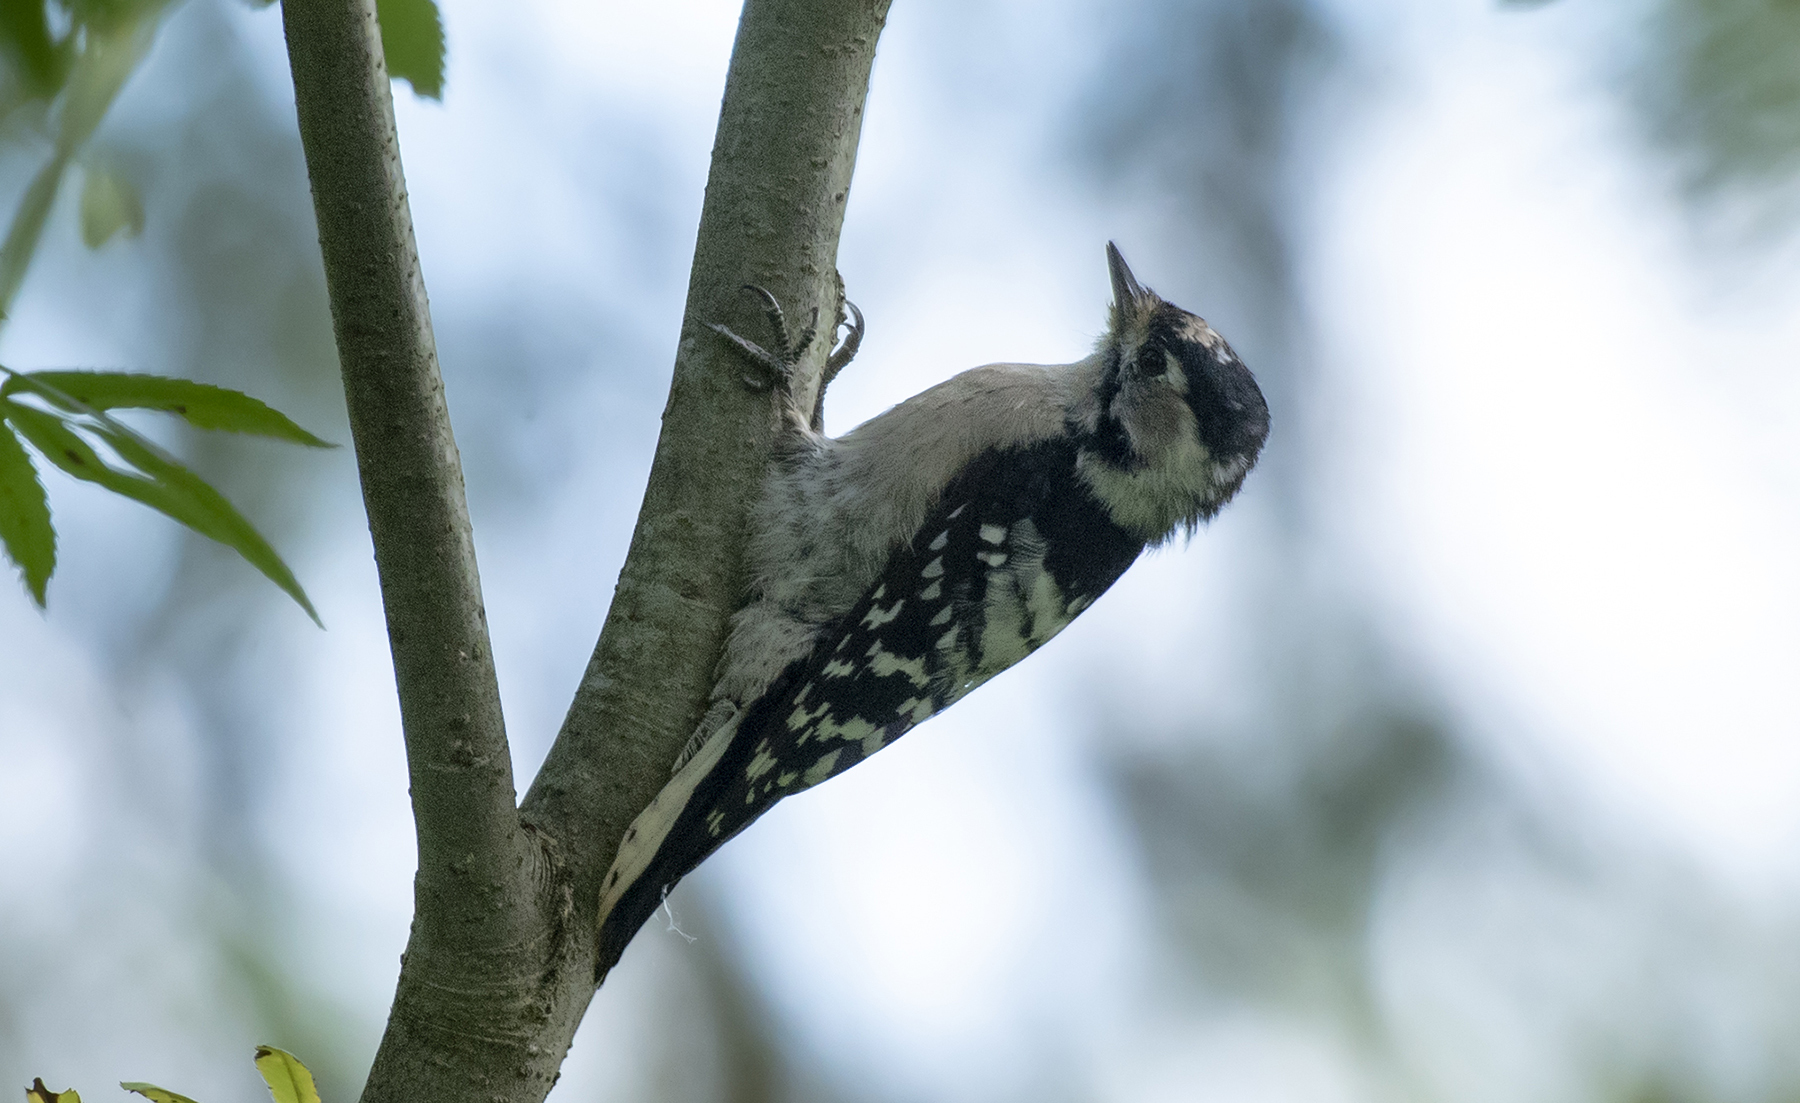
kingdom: Animalia
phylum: Chordata
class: Aves
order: Piciformes
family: Picidae
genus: Dryobates
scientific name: Dryobates minor
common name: Lesser spotted woodpecker
